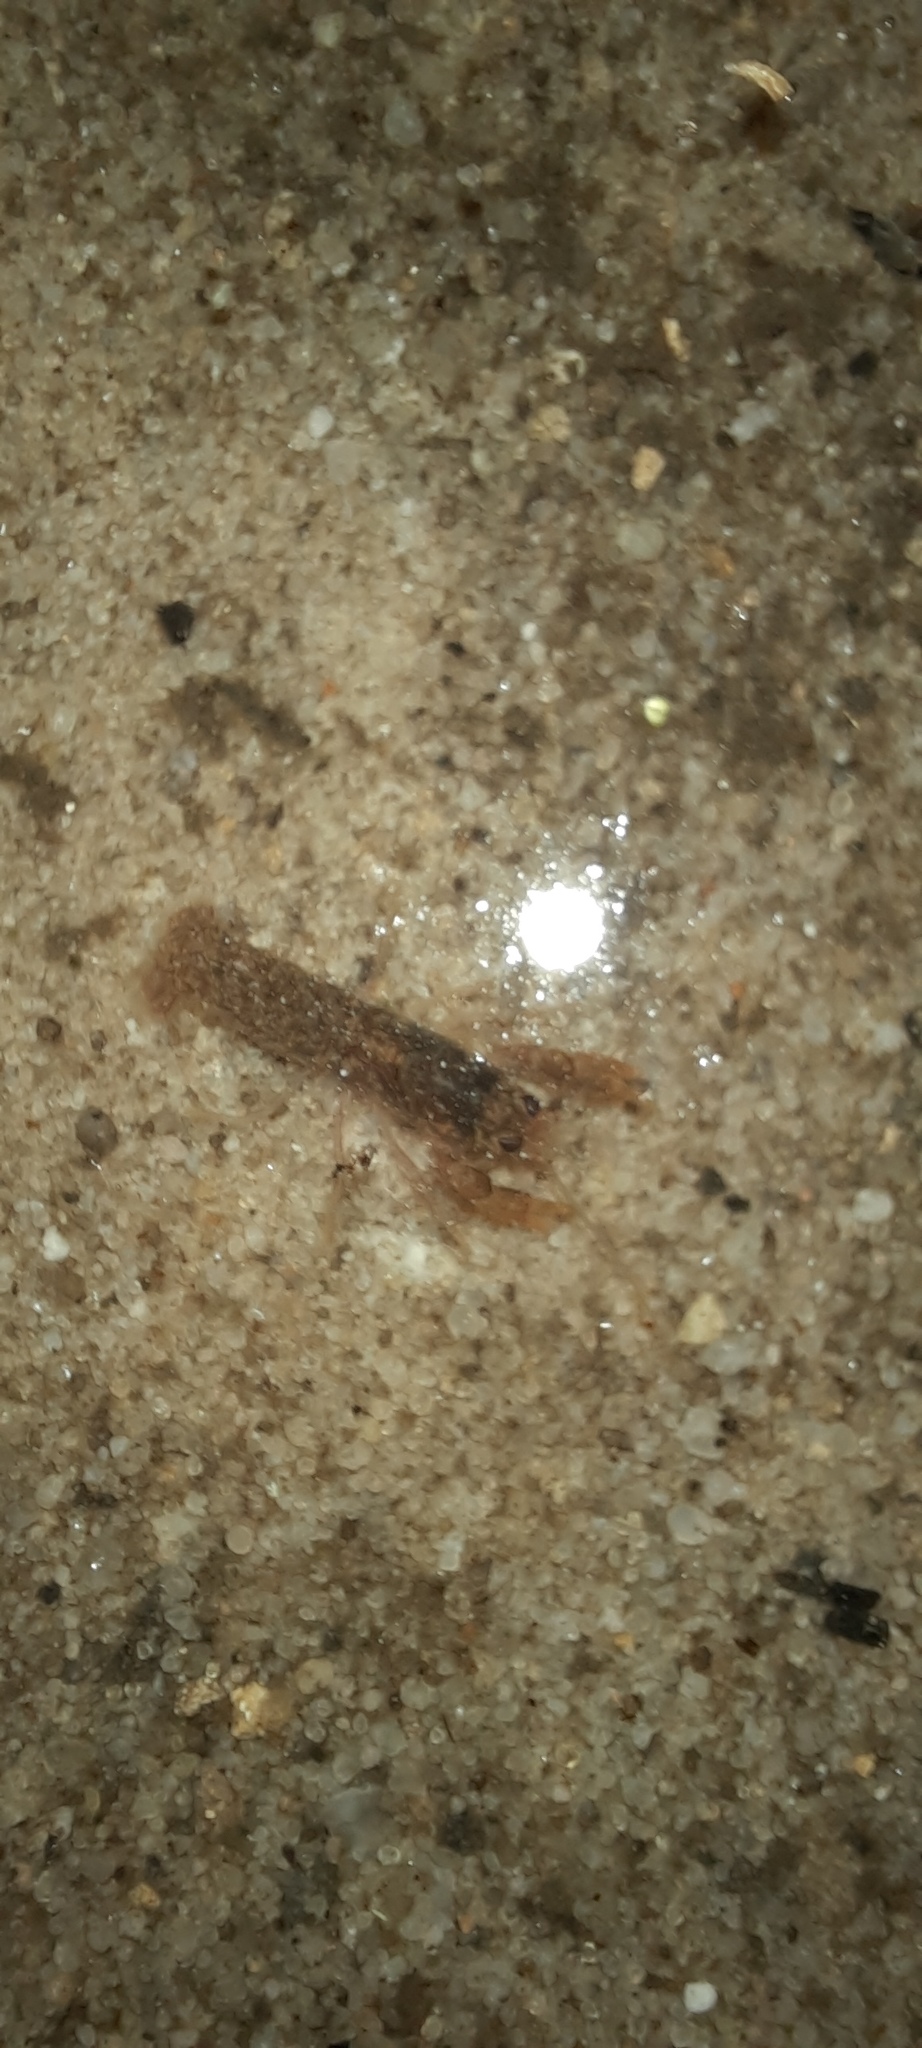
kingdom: Animalia
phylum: Arthropoda
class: Malacostraca
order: Decapoda
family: Parastacidae
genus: Cherax
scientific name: Cherax destructor
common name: Yabby
